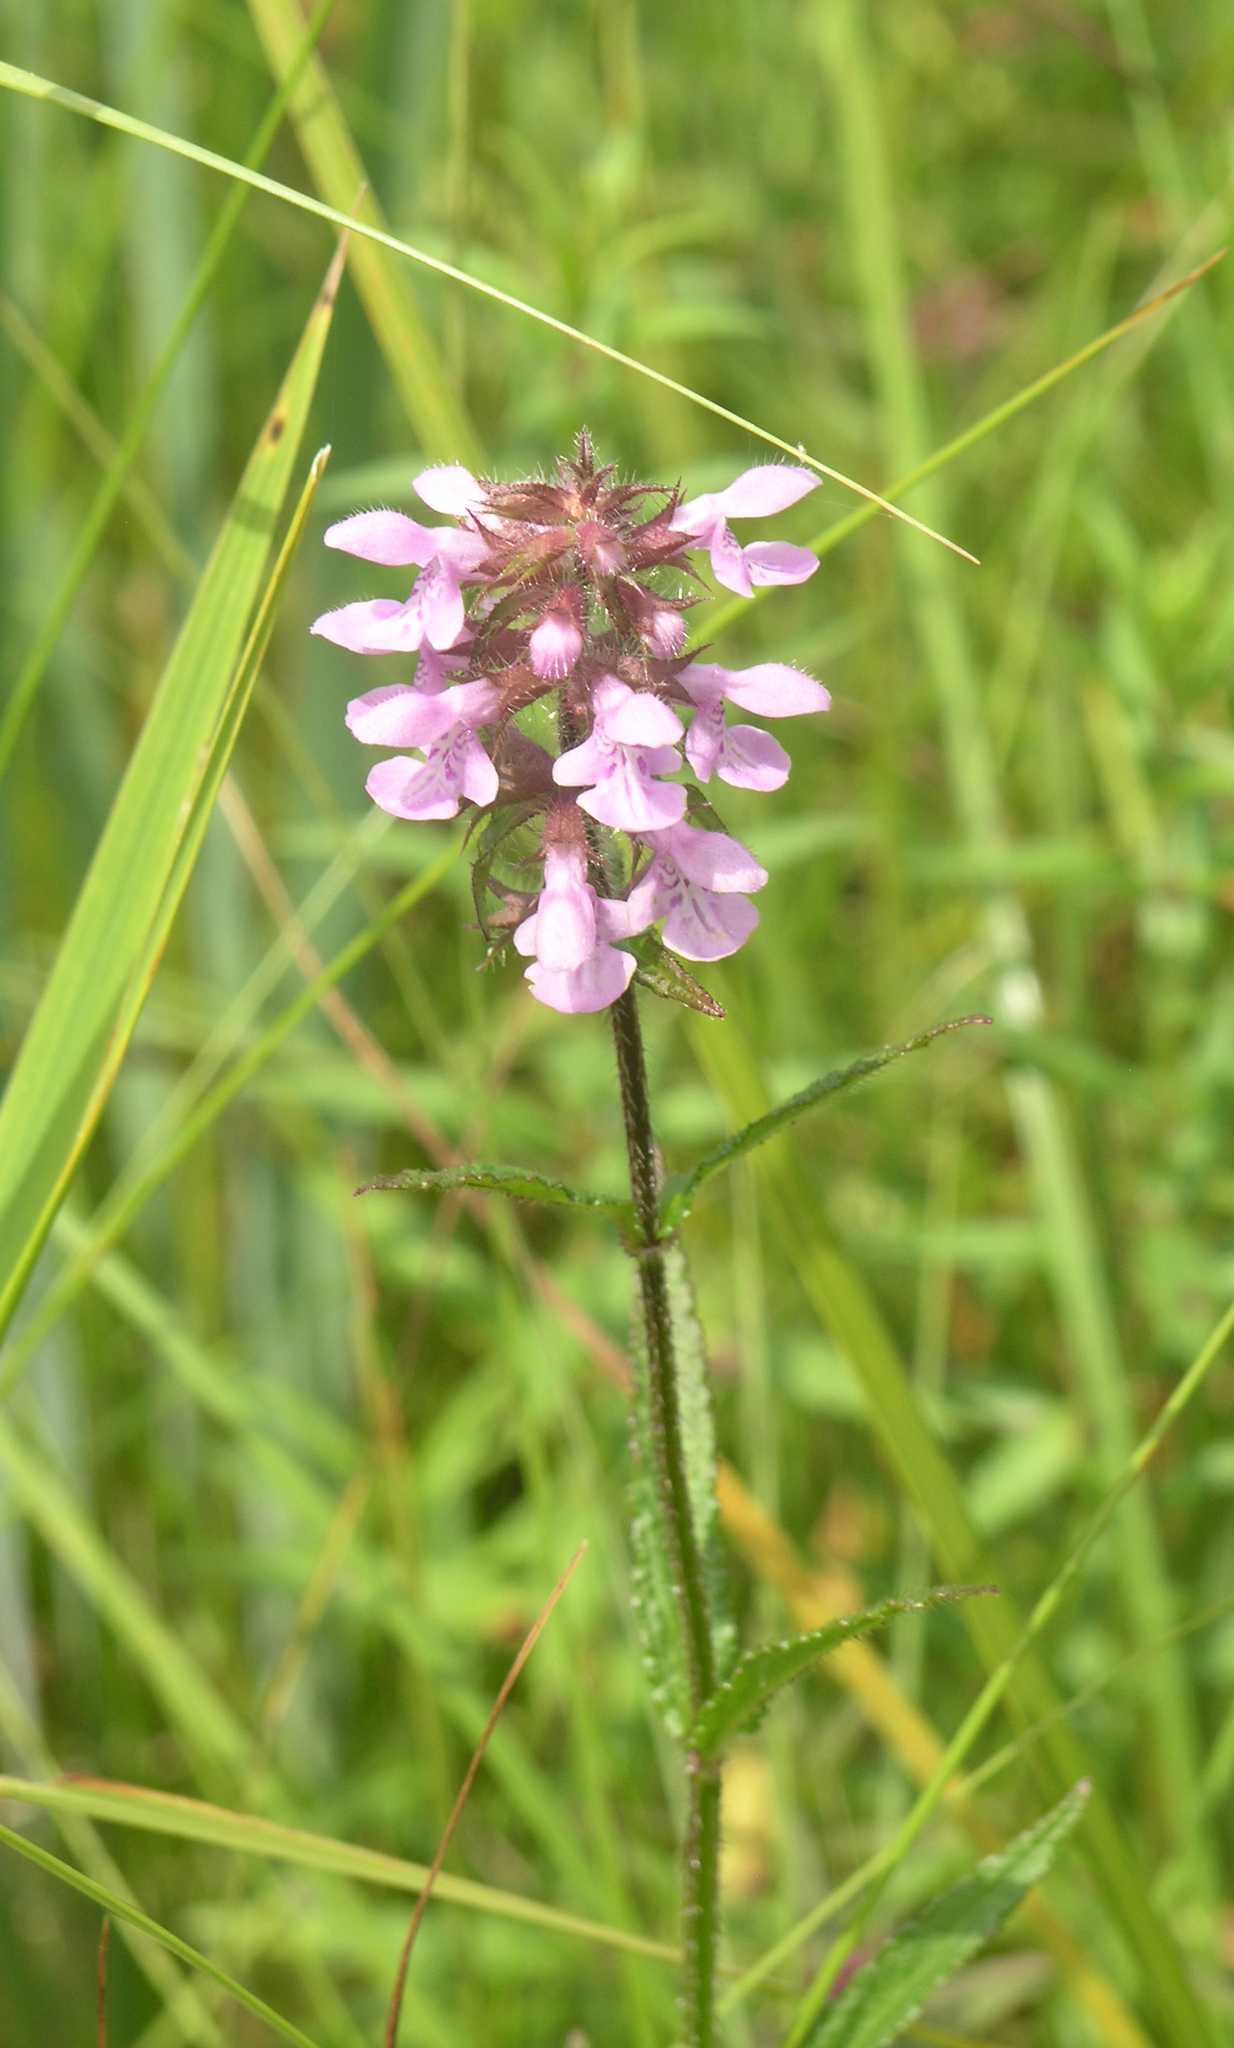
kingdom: Plantae
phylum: Tracheophyta
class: Magnoliopsida
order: Lamiales
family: Lamiaceae
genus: Stachys
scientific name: Stachys aspera
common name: Hyssopleaf hedgenettle
